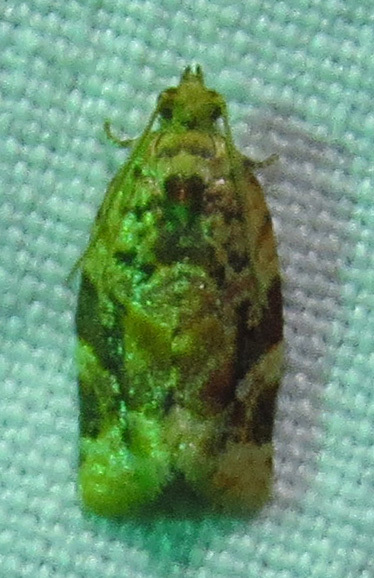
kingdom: Animalia
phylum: Arthropoda
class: Insecta
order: Lepidoptera
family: Tortricidae
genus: Argyrotaenia
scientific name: Argyrotaenia velutinana
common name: Red-banded leafroller moth
